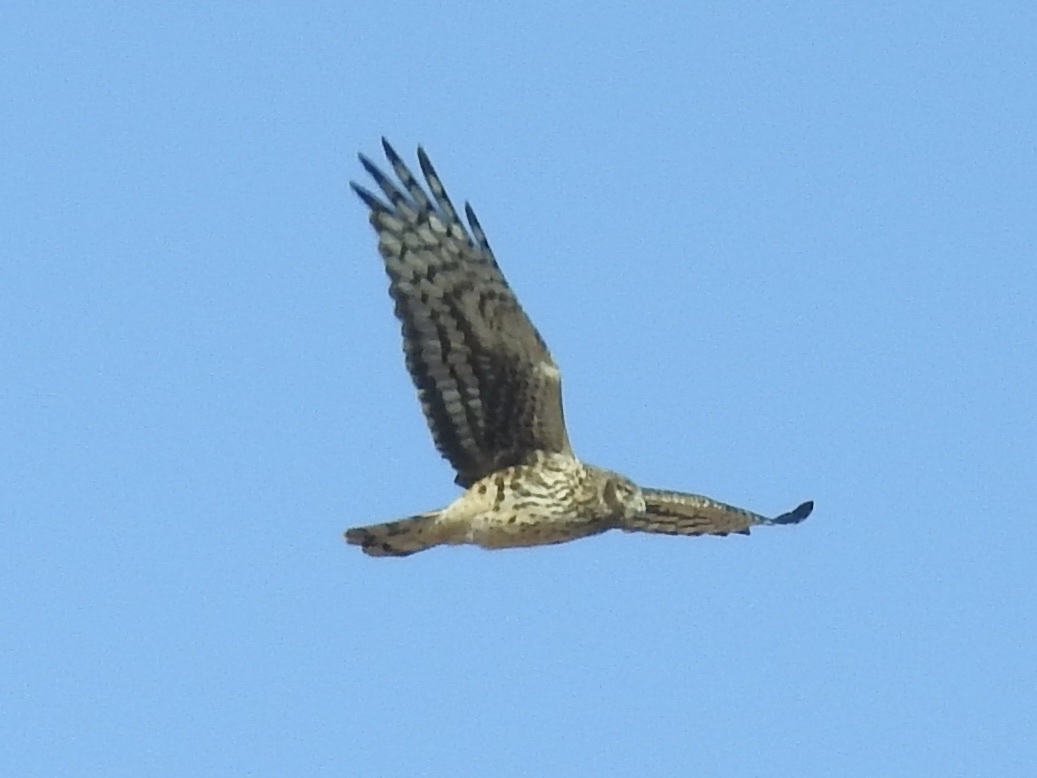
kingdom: Animalia
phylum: Chordata
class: Aves
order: Accipitriformes
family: Accipitridae
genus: Circus
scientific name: Circus cyaneus
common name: Hen harrier
